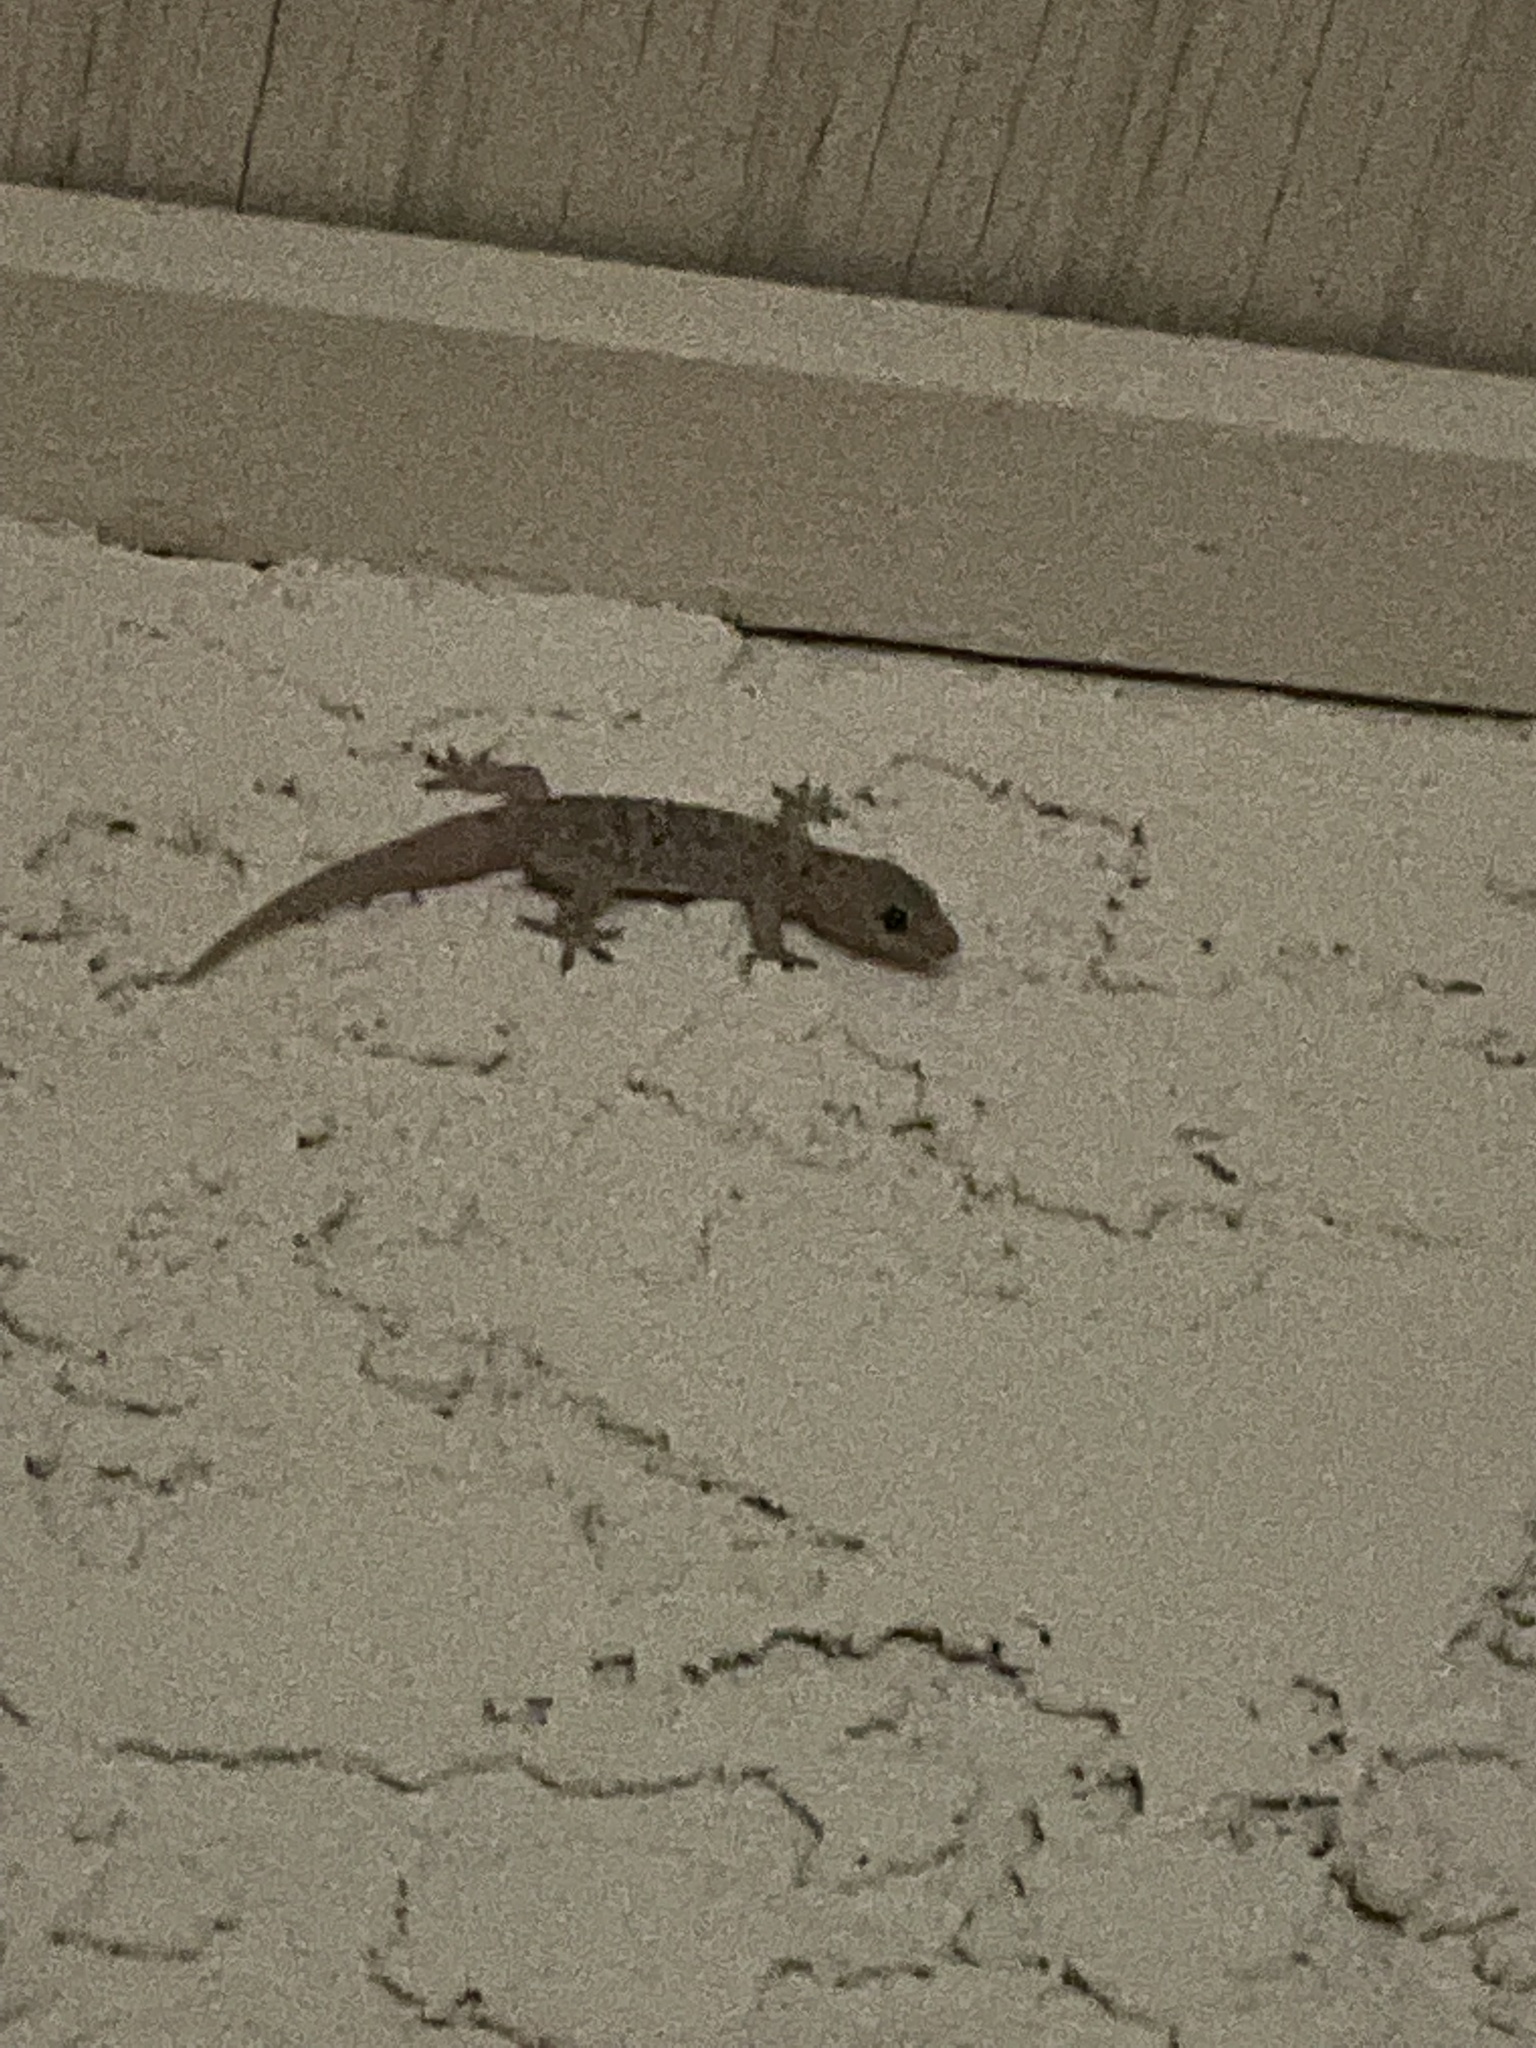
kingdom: Animalia
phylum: Chordata
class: Squamata
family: Gekkonidae
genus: Hemidactylus
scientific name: Hemidactylus turcicus
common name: Turkish gecko
